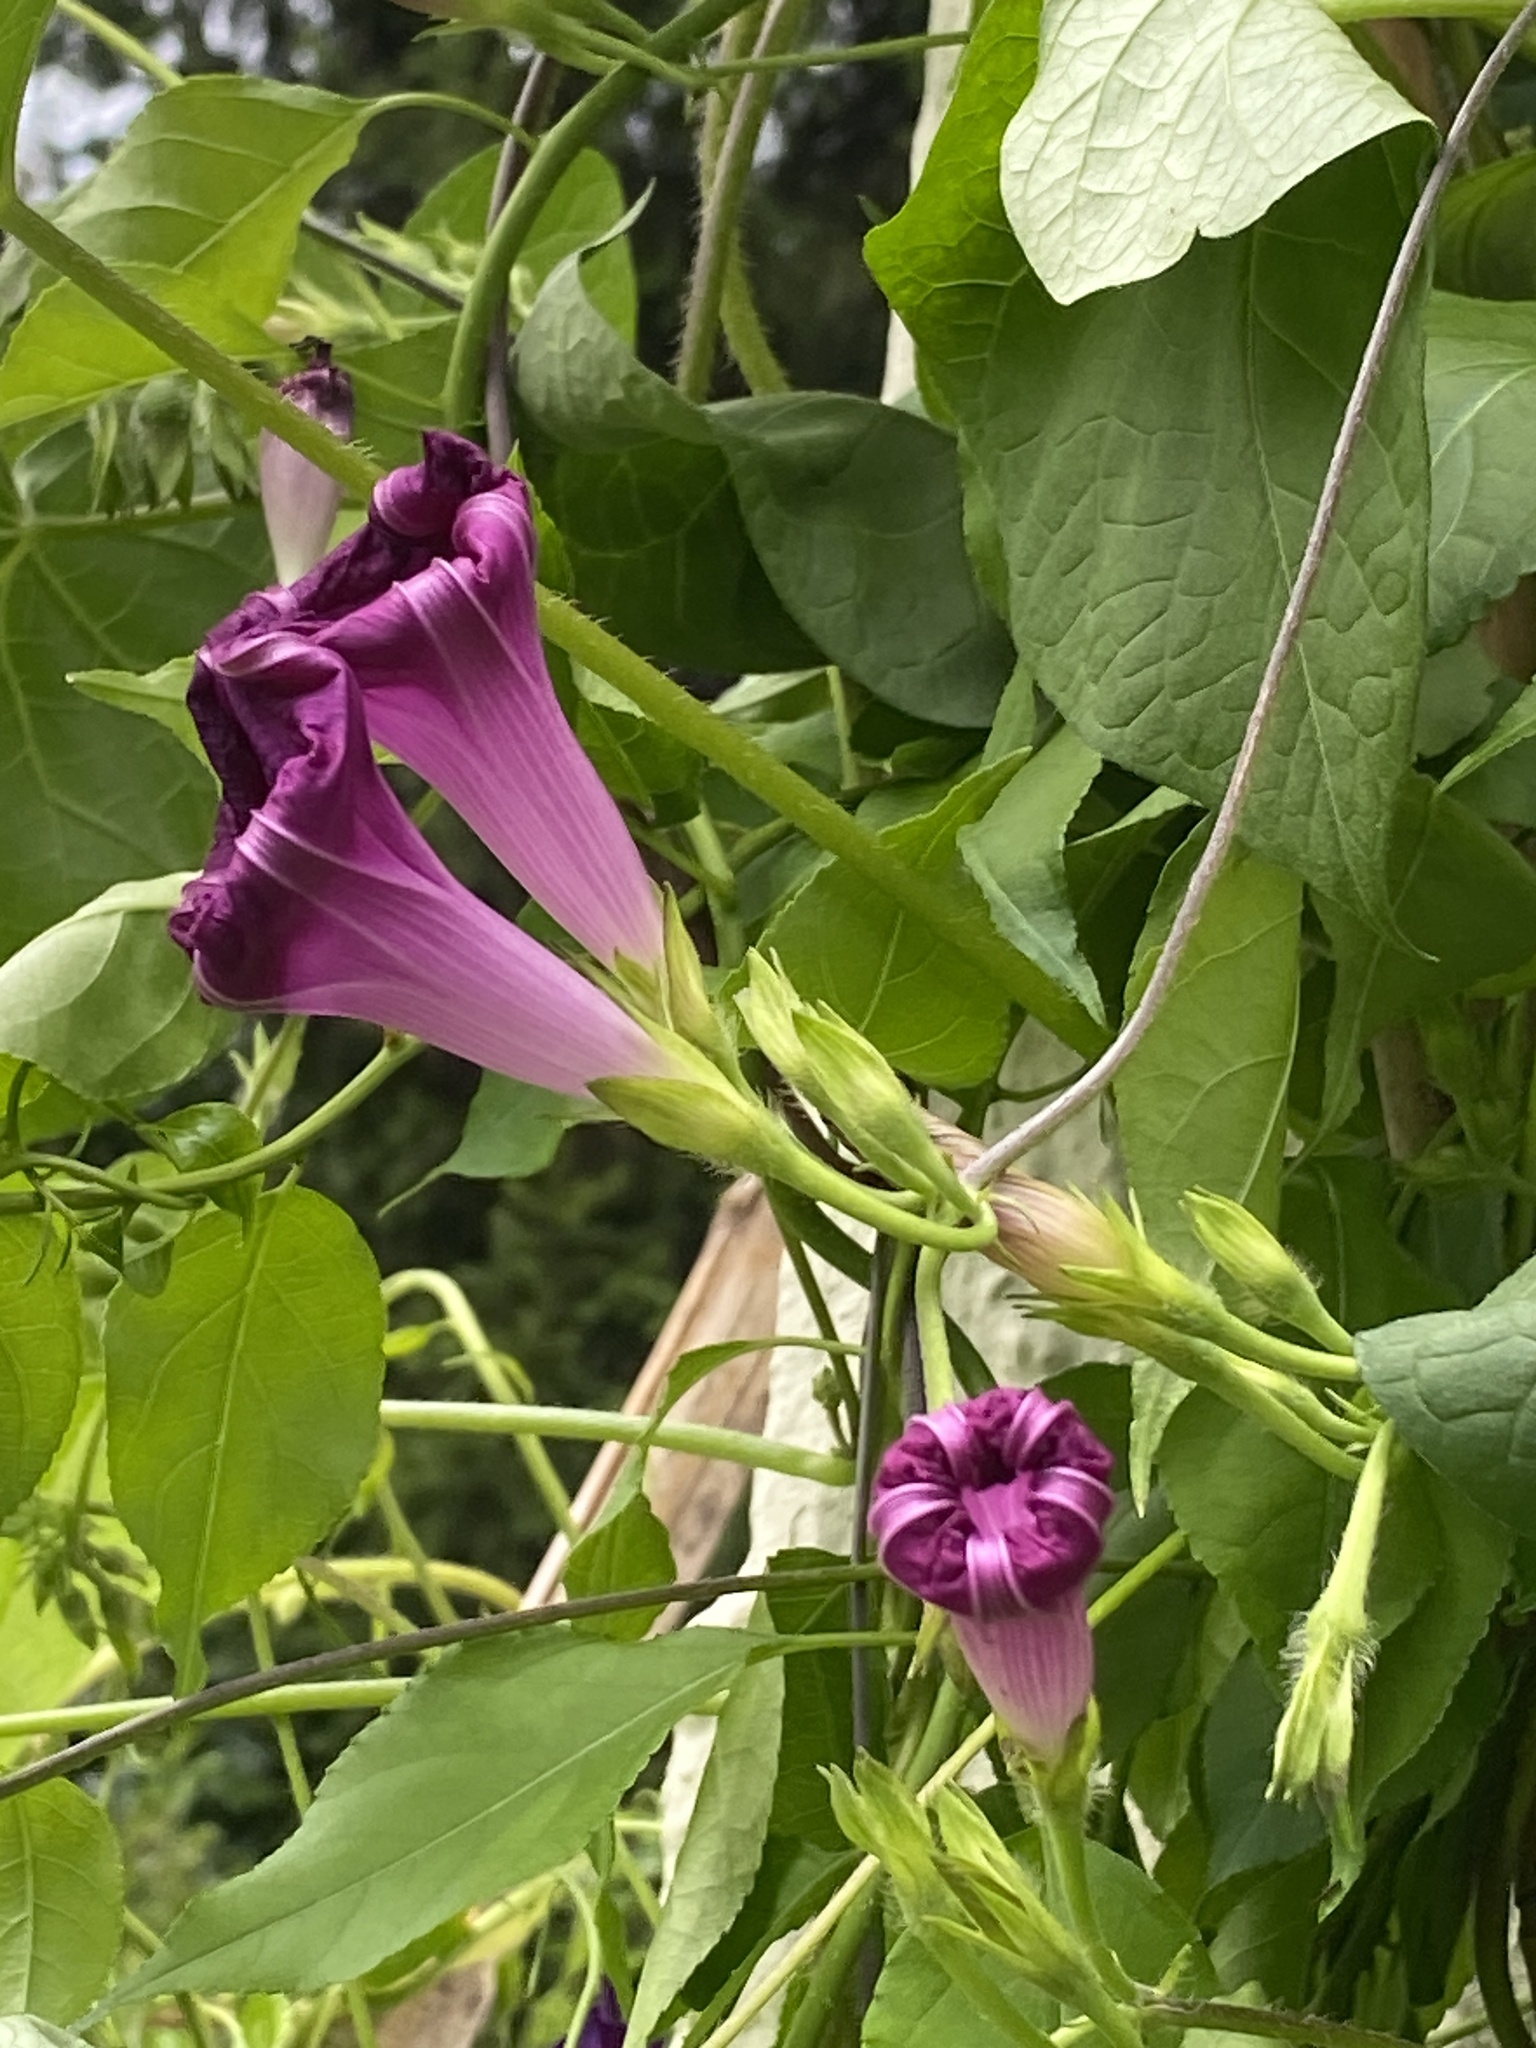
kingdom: Plantae
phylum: Tracheophyta
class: Magnoliopsida
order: Solanales
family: Convolvulaceae
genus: Ipomoea
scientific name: Ipomoea purpurea
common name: Common morning-glory
